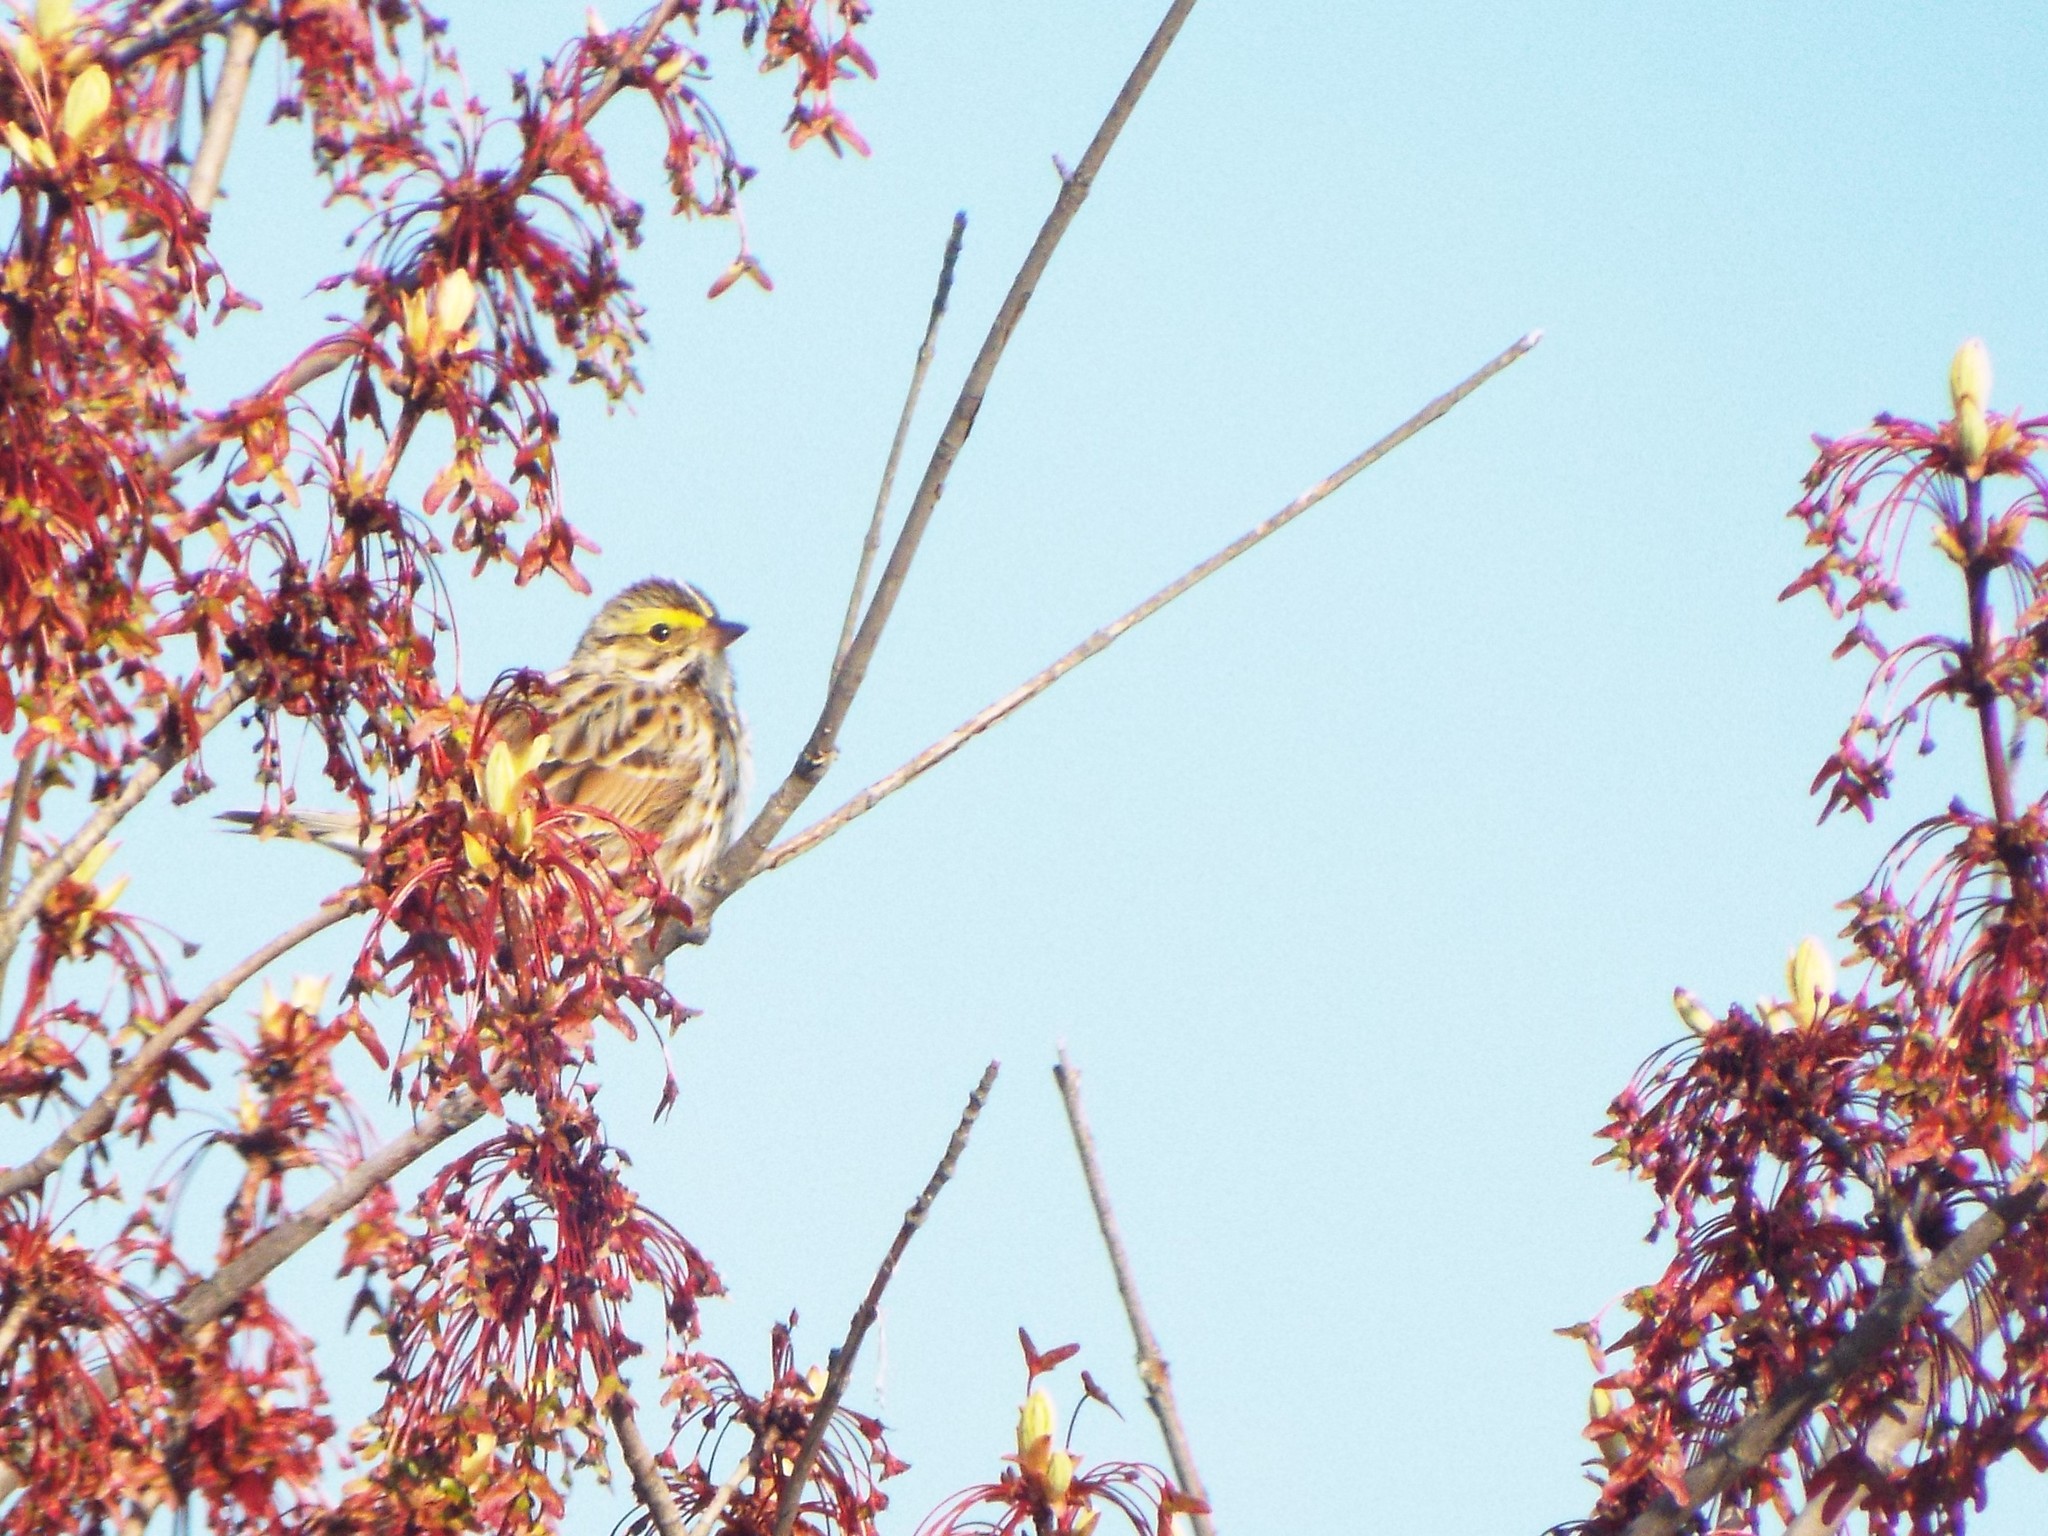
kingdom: Animalia
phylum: Chordata
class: Aves
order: Passeriformes
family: Passerellidae
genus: Passerculus
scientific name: Passerculus sandwichensis
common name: Savannah sparrow
